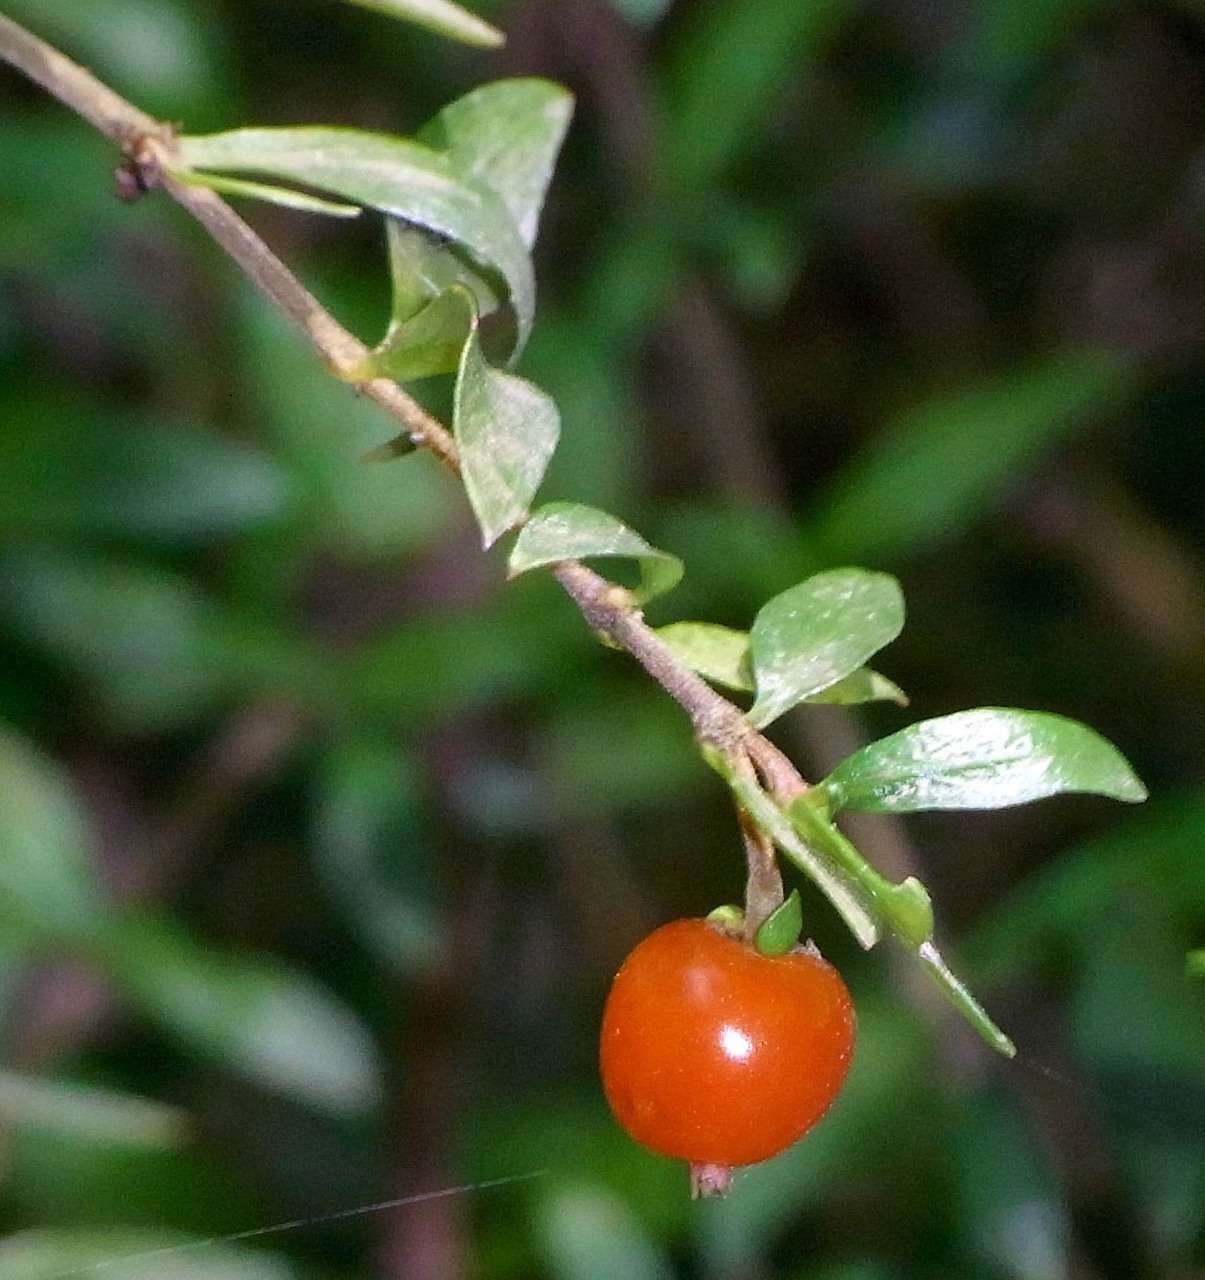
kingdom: Plantae
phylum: Tracheophyta
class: Magnoliopsida
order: Gentianales
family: Rubiaceae
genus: Coprosma
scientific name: Coprosma quadrifida
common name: Prickly currantbush
